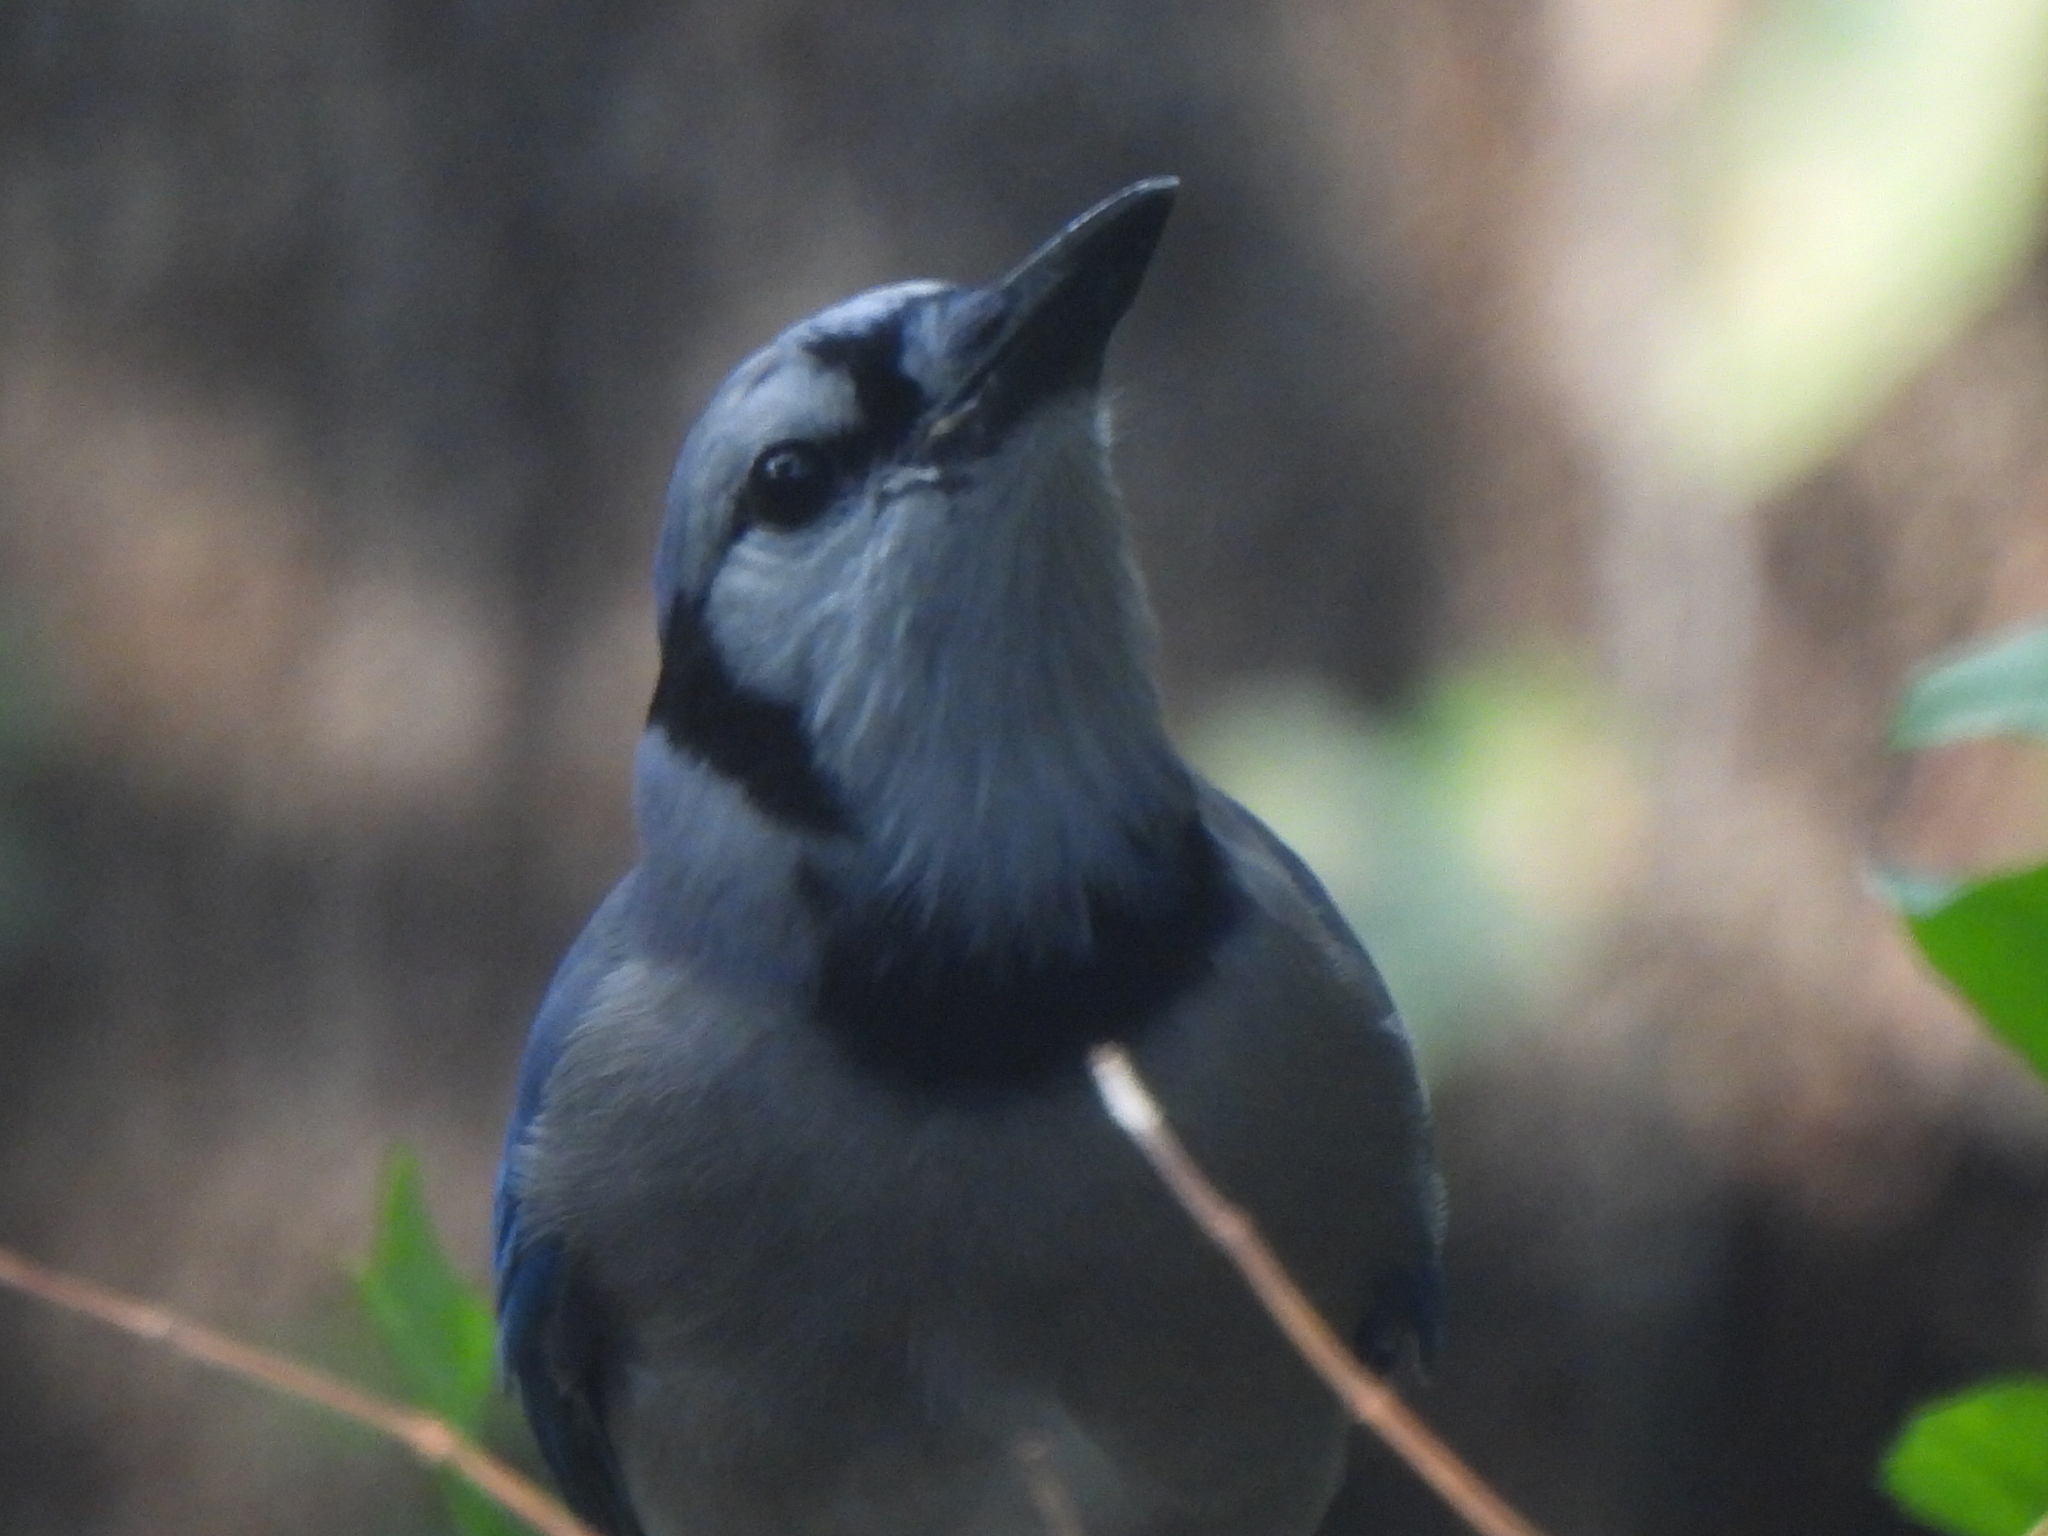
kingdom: Animalia
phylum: Chordata
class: Aves
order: Passeriformes
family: Corvidae
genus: Cyanocitta
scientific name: Cyanocitta cristata
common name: Blue jay
